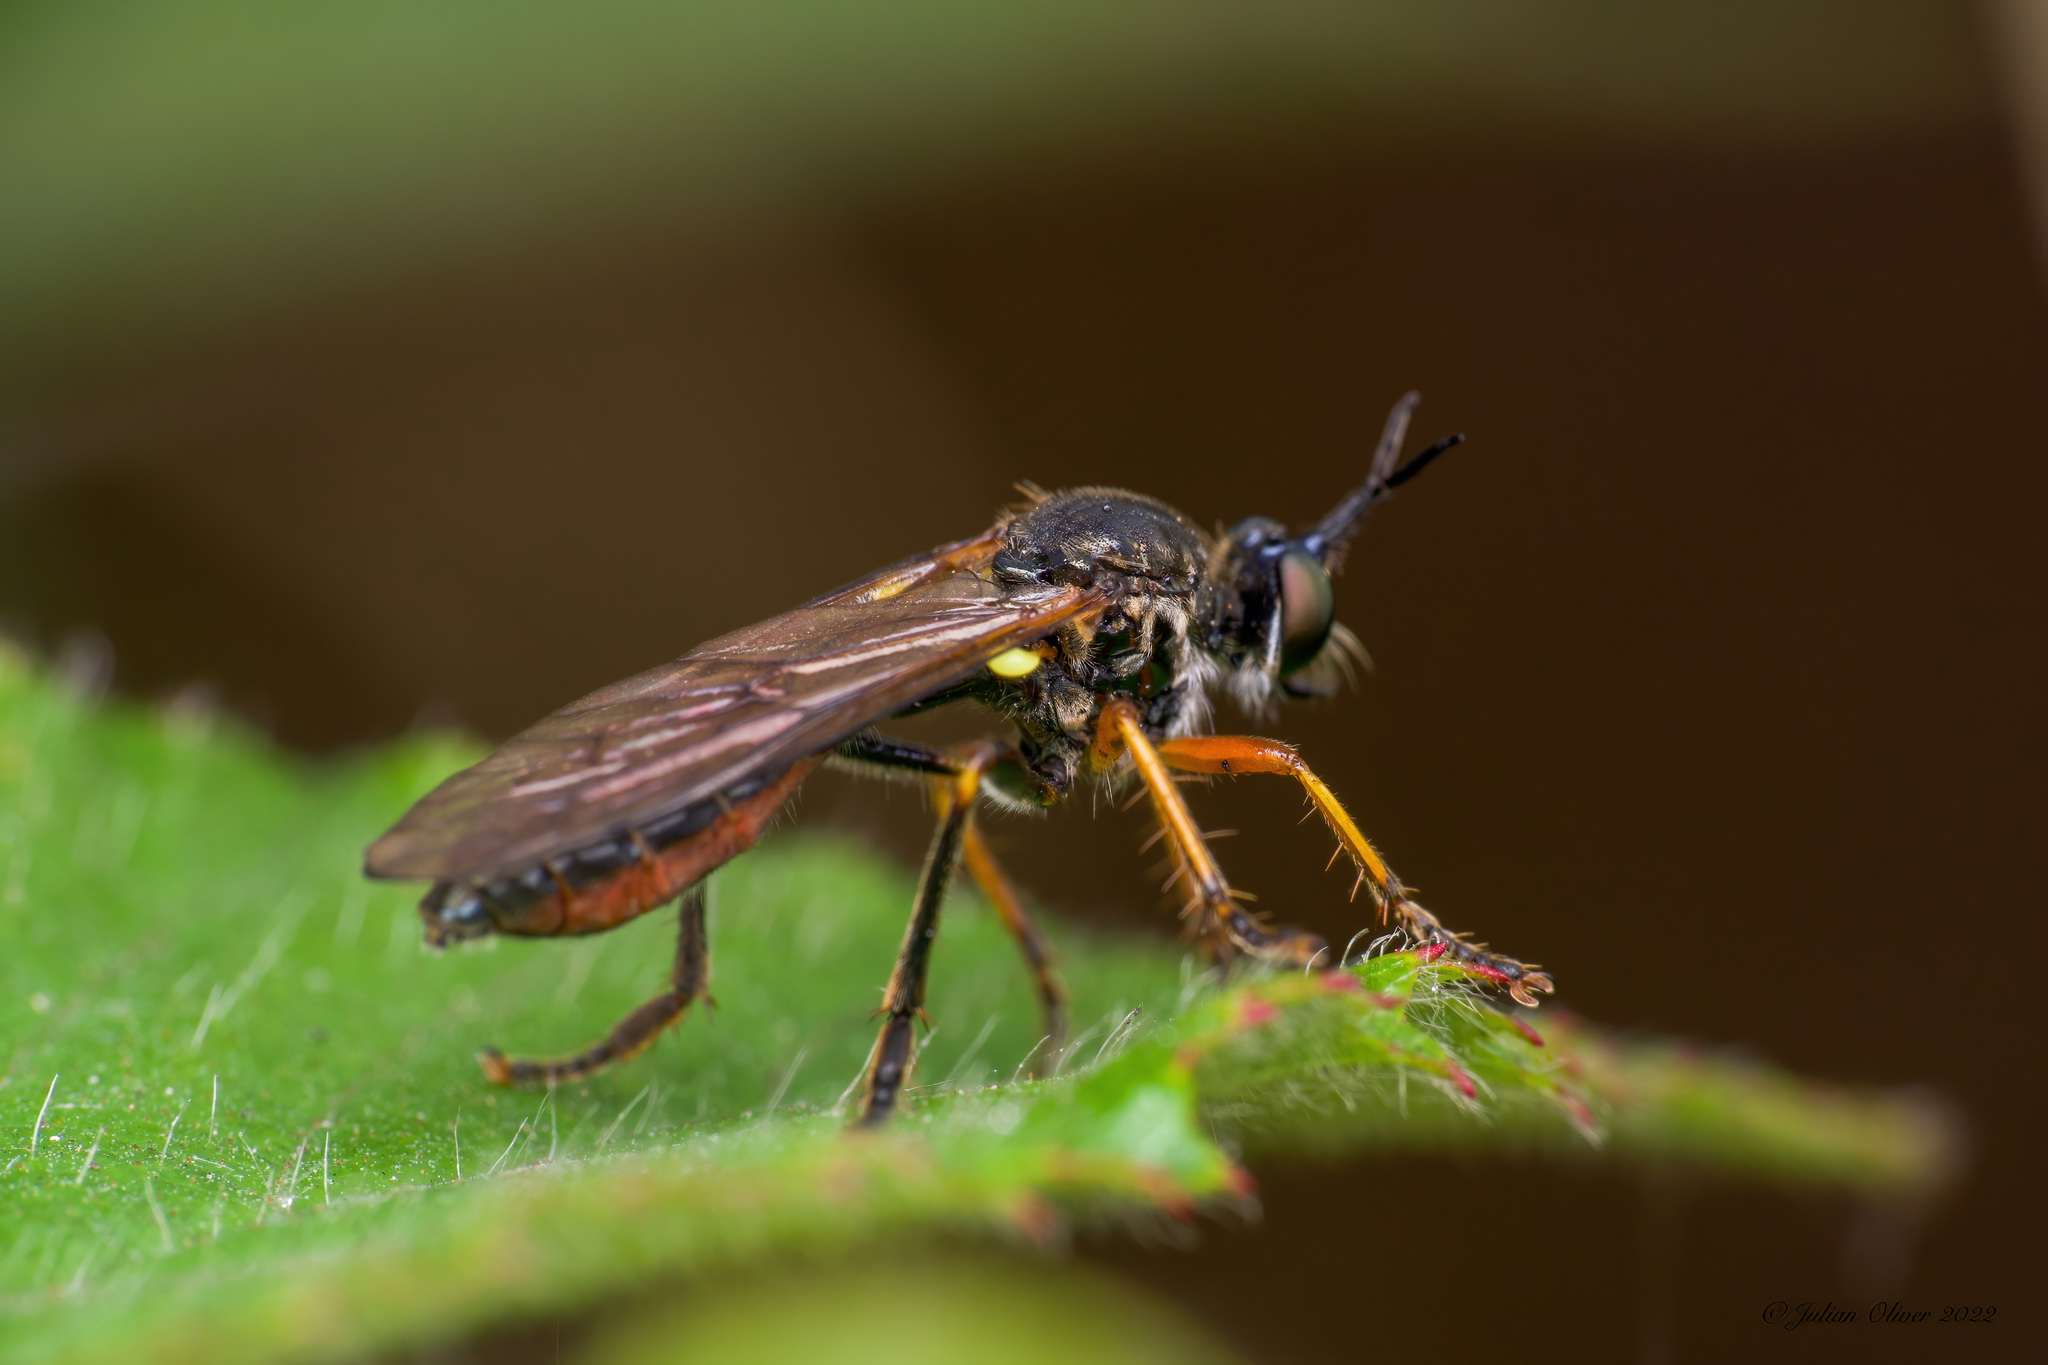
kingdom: Animalia
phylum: Arthropoda
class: Insecta
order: Diptera
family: Asilidae
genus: Dioctria
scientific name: Dioctria rufipes
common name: Common red-legged robberfly
